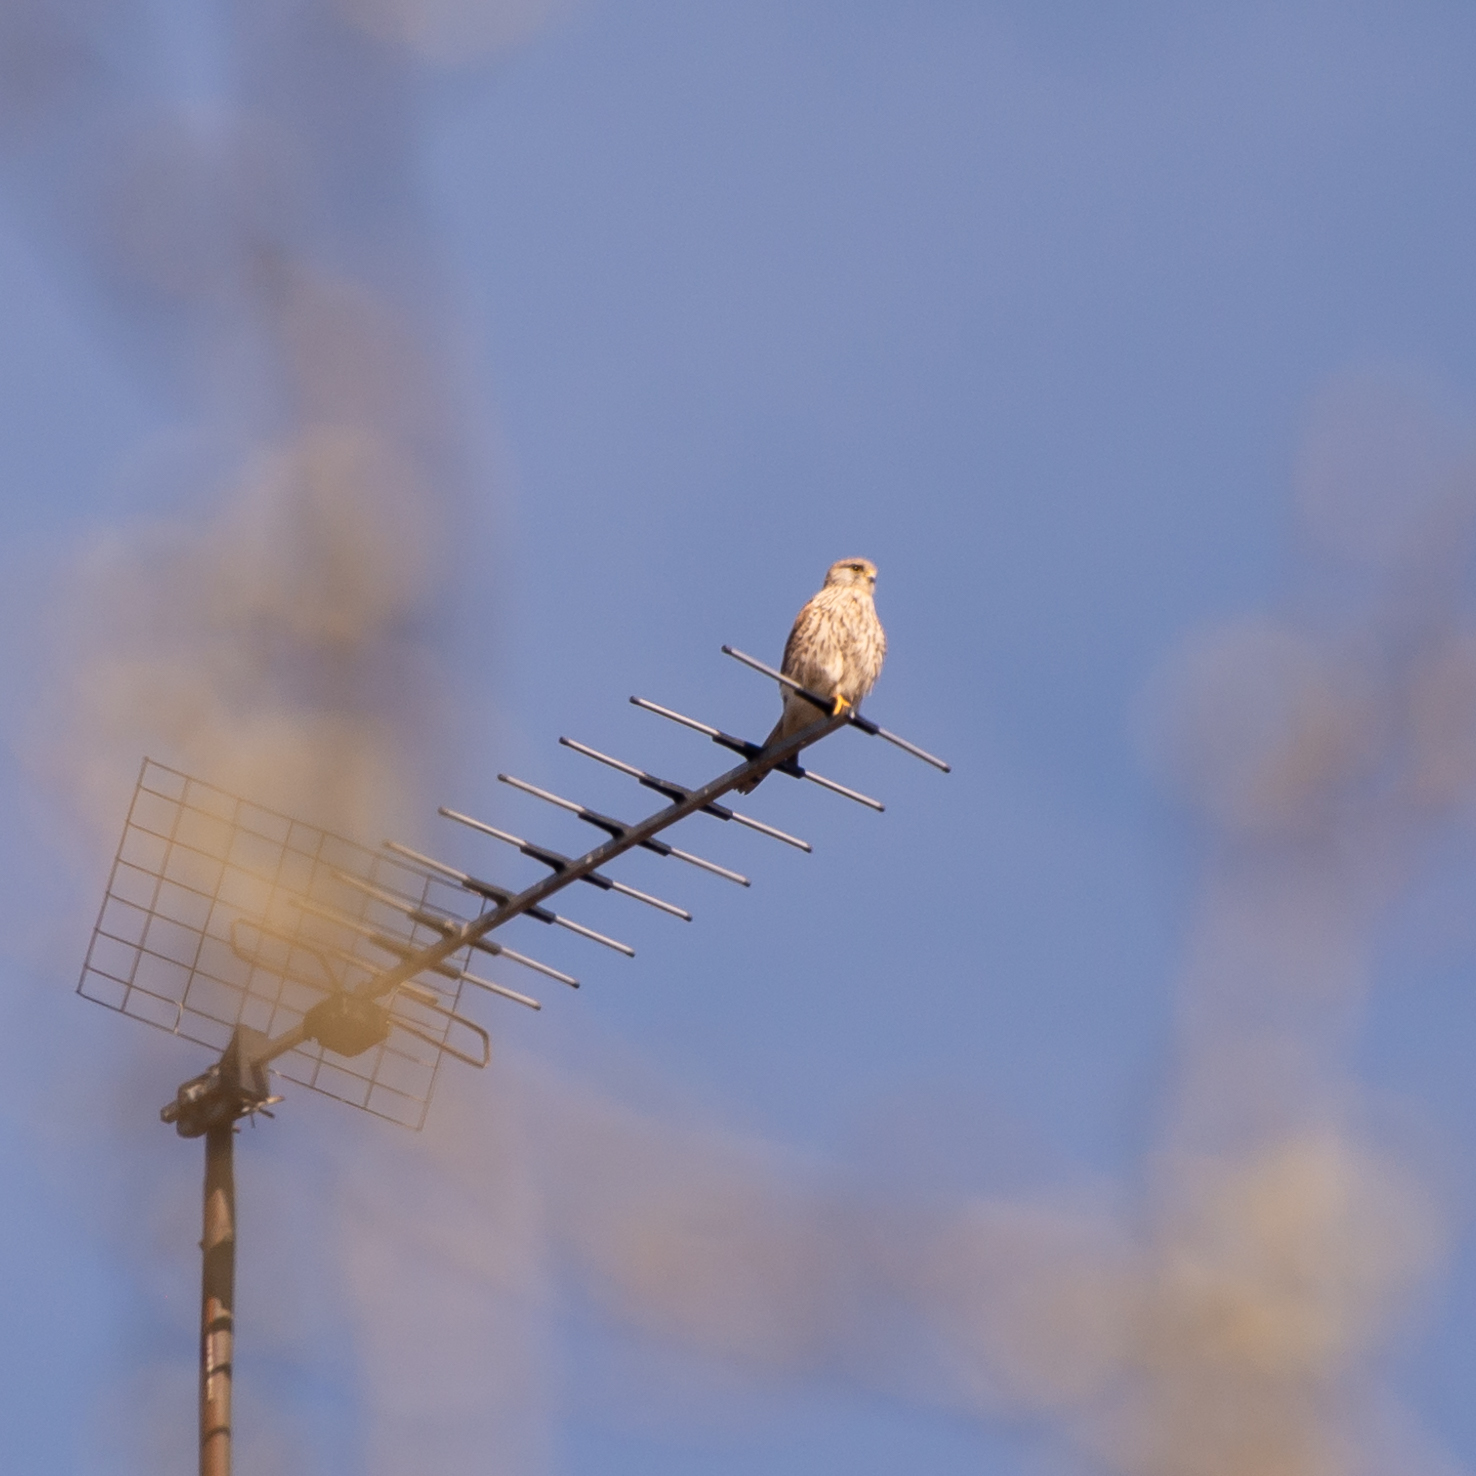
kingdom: Animalia
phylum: Chordata
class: Aves
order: Falconiformes
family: Falconidae
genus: Falco
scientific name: Falco tinnunculus
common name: Common kestrel
